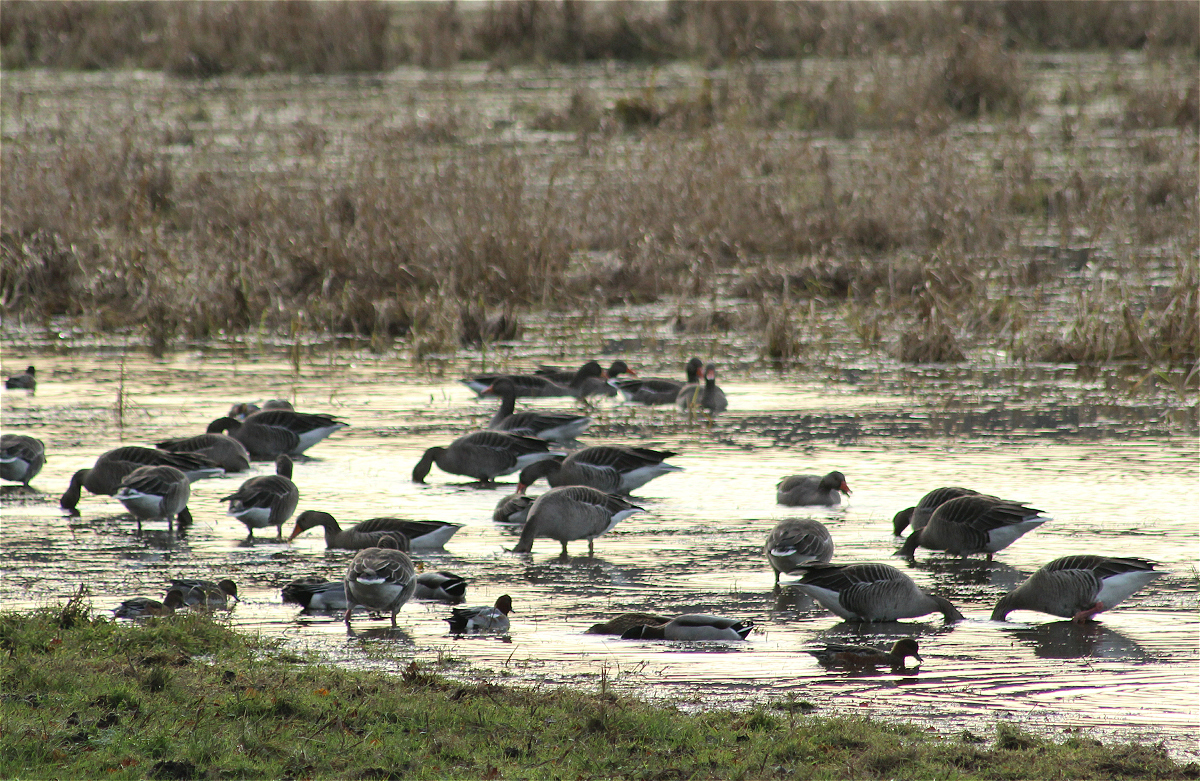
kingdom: Animalia
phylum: Chordata
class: Aves
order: Anseriformes
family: Anatidae
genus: Anser
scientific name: Anser anser
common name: Greylag goose
